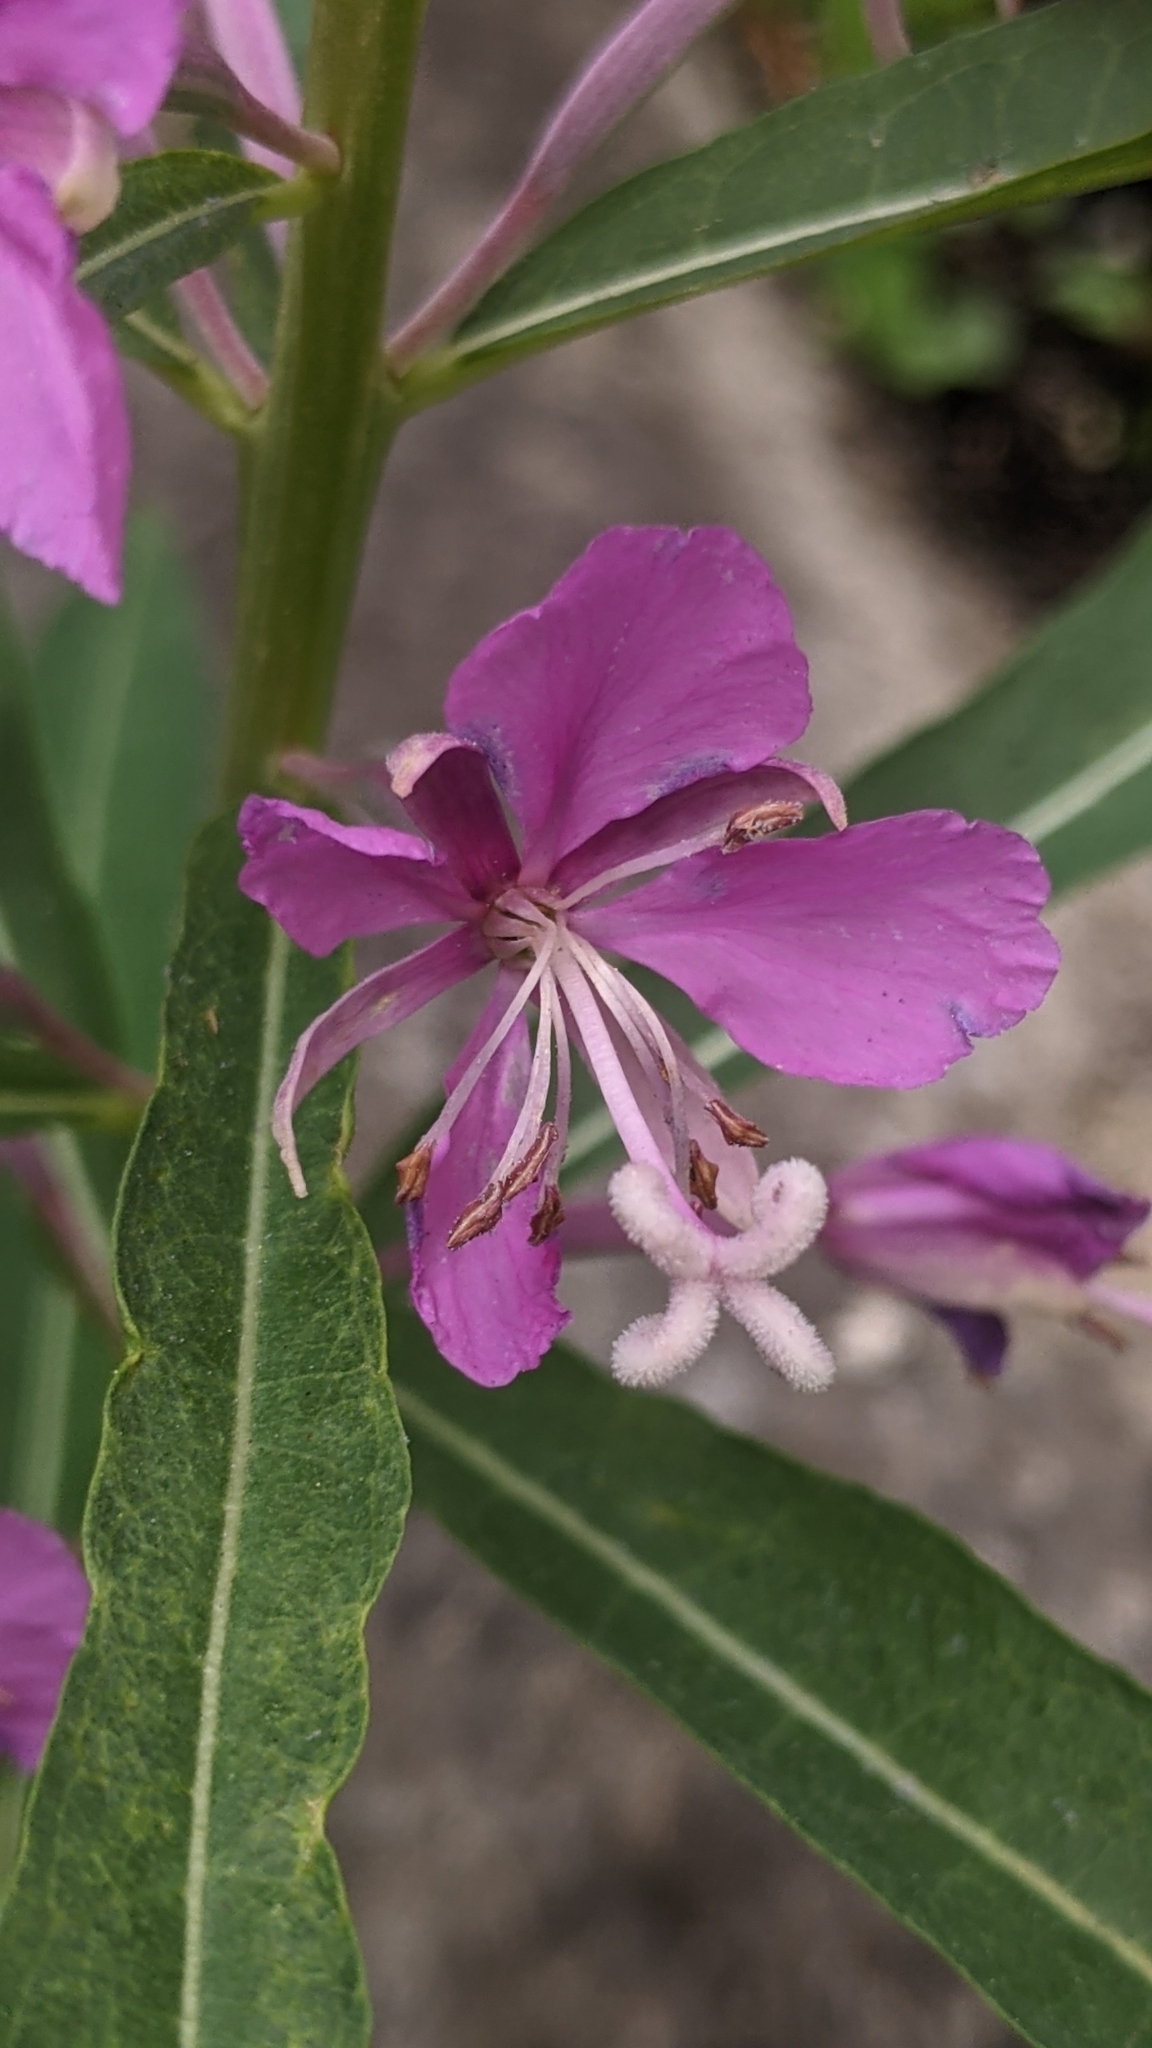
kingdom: Plantae
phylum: Tracheophyta
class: Magnoliopsida
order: Myrtales
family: Onagraceae
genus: Chamaenerion
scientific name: Chamaenerion angustifolium
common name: Fireweed
